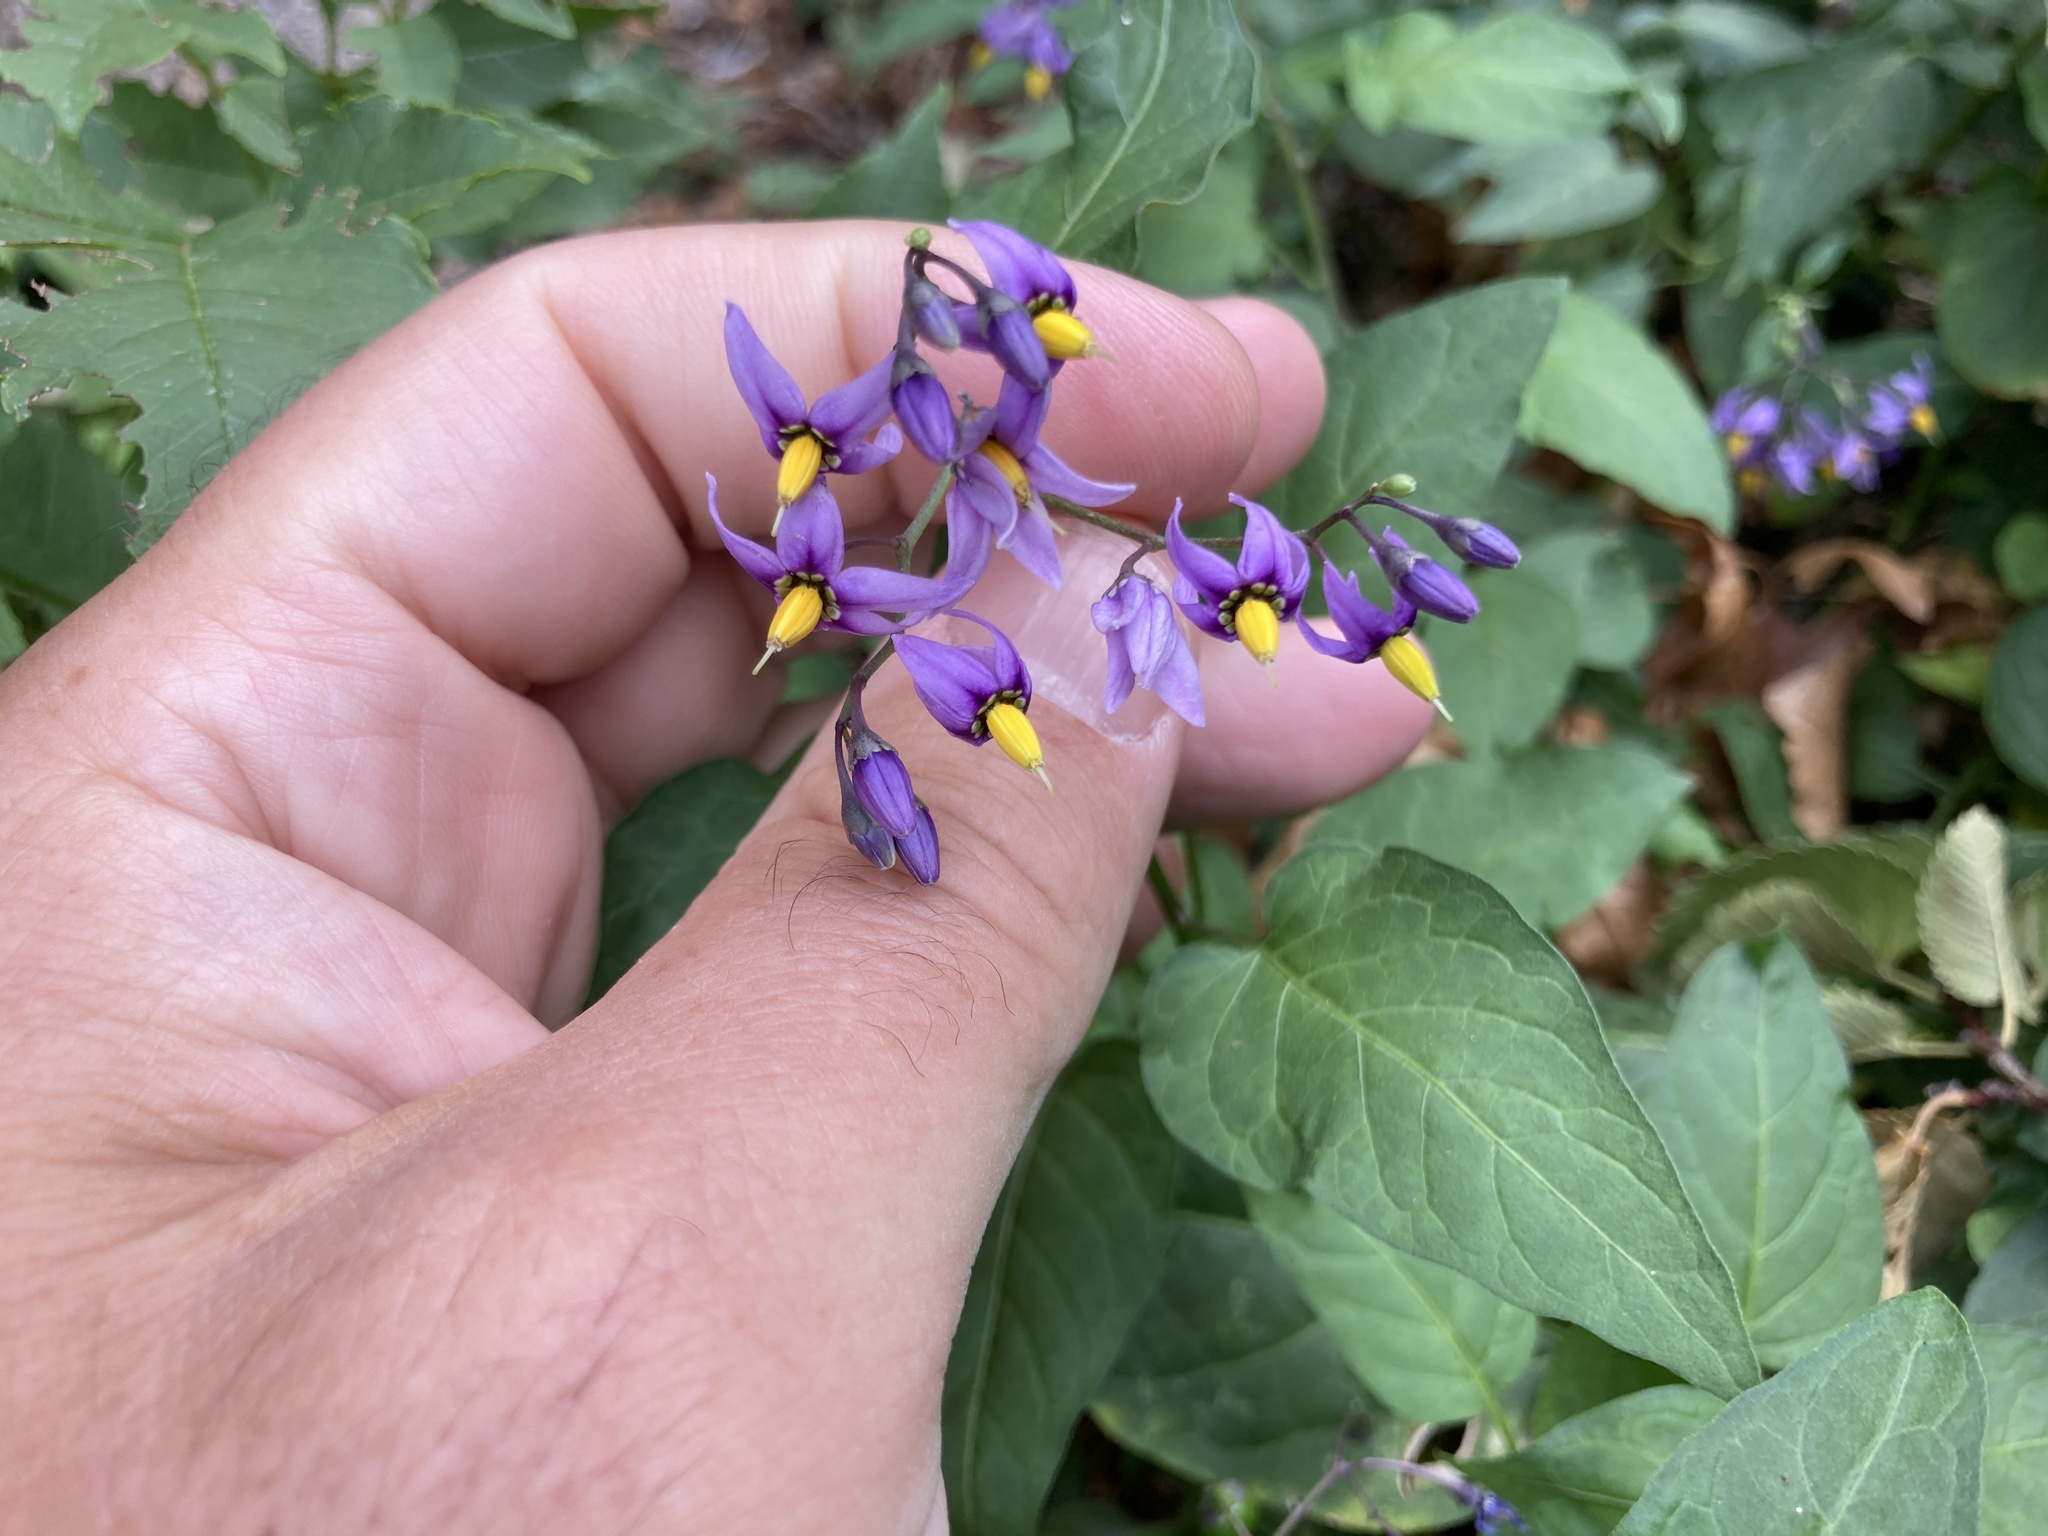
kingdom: Plantae
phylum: Tracheophyta
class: Magnoliopsida
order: Solanales
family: Solanaceae
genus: Solanum
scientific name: Solanum dulcamara
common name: Climbing nightshade
